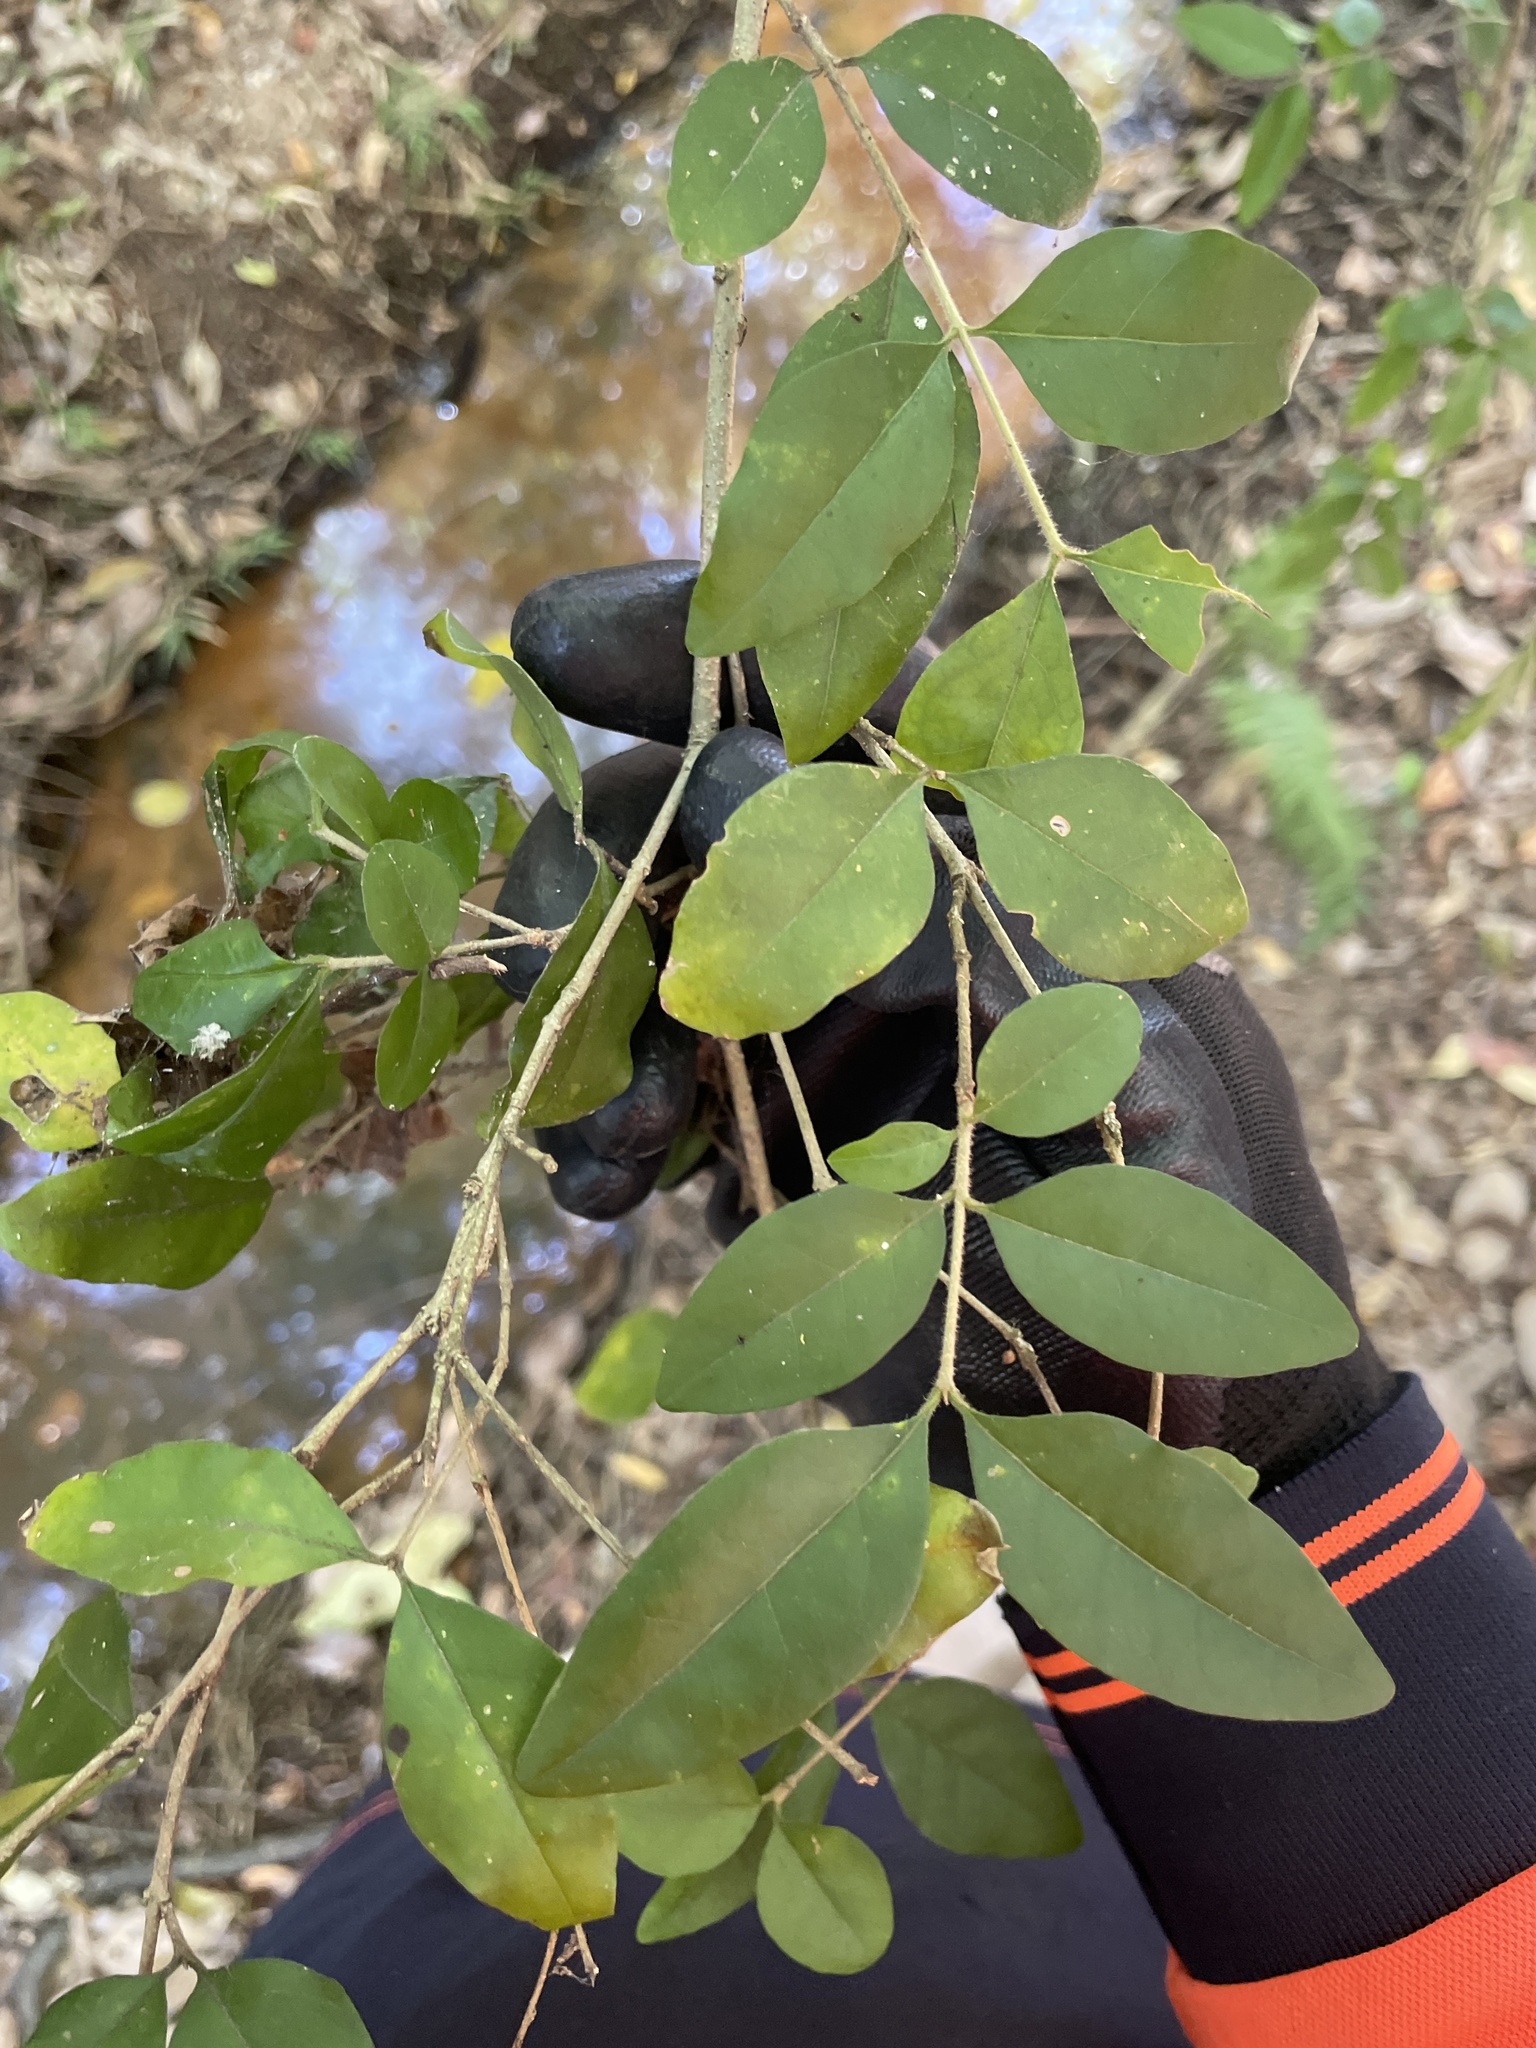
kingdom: Plantae
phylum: Tracheophyta
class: Magnoliopsida
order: Lamiales
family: Oleaceae
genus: Ligustrum
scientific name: Ligustrum sinense
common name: Chinese privet
